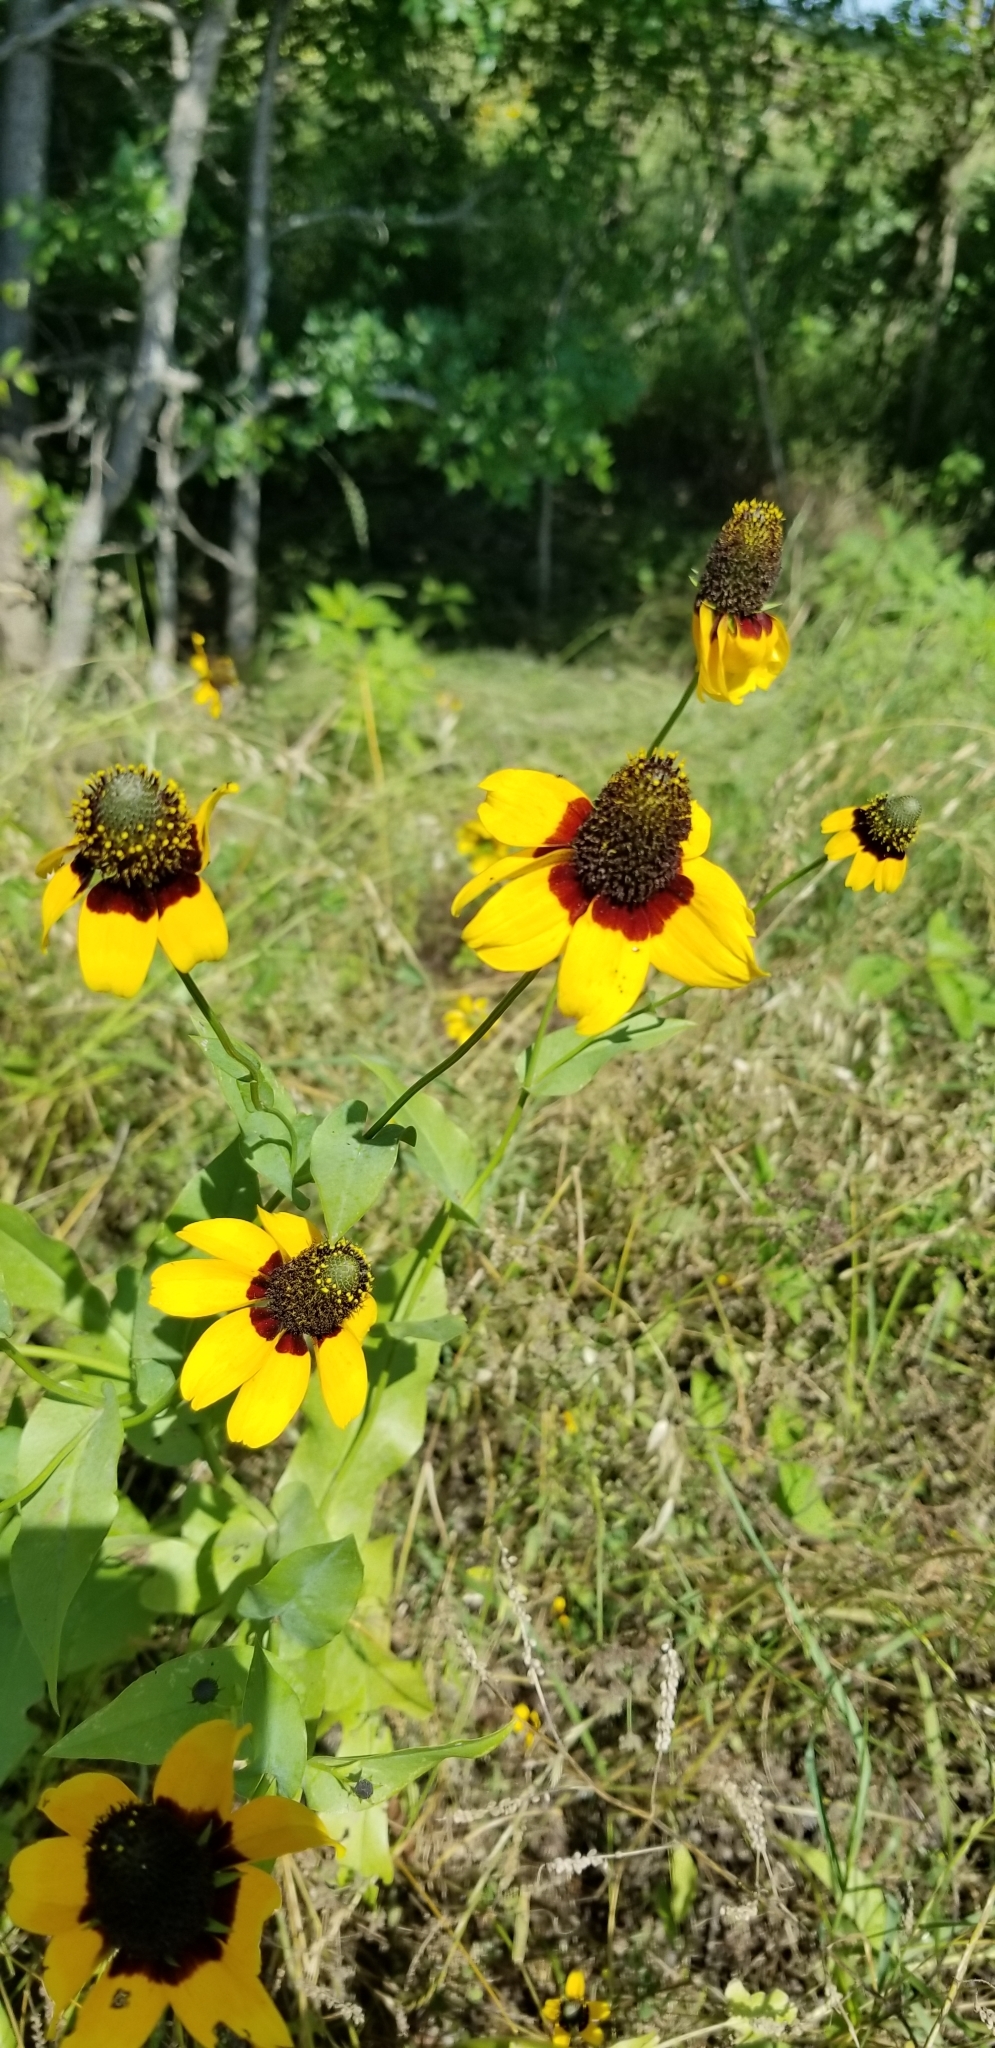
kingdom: Plantae
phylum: Tracheophyta
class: Magnoliopsida
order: Asterales
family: Asteraceae
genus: Rudbeckia
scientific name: Rudbeckia amplexicaulis
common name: Clasping-leaf coneflower
